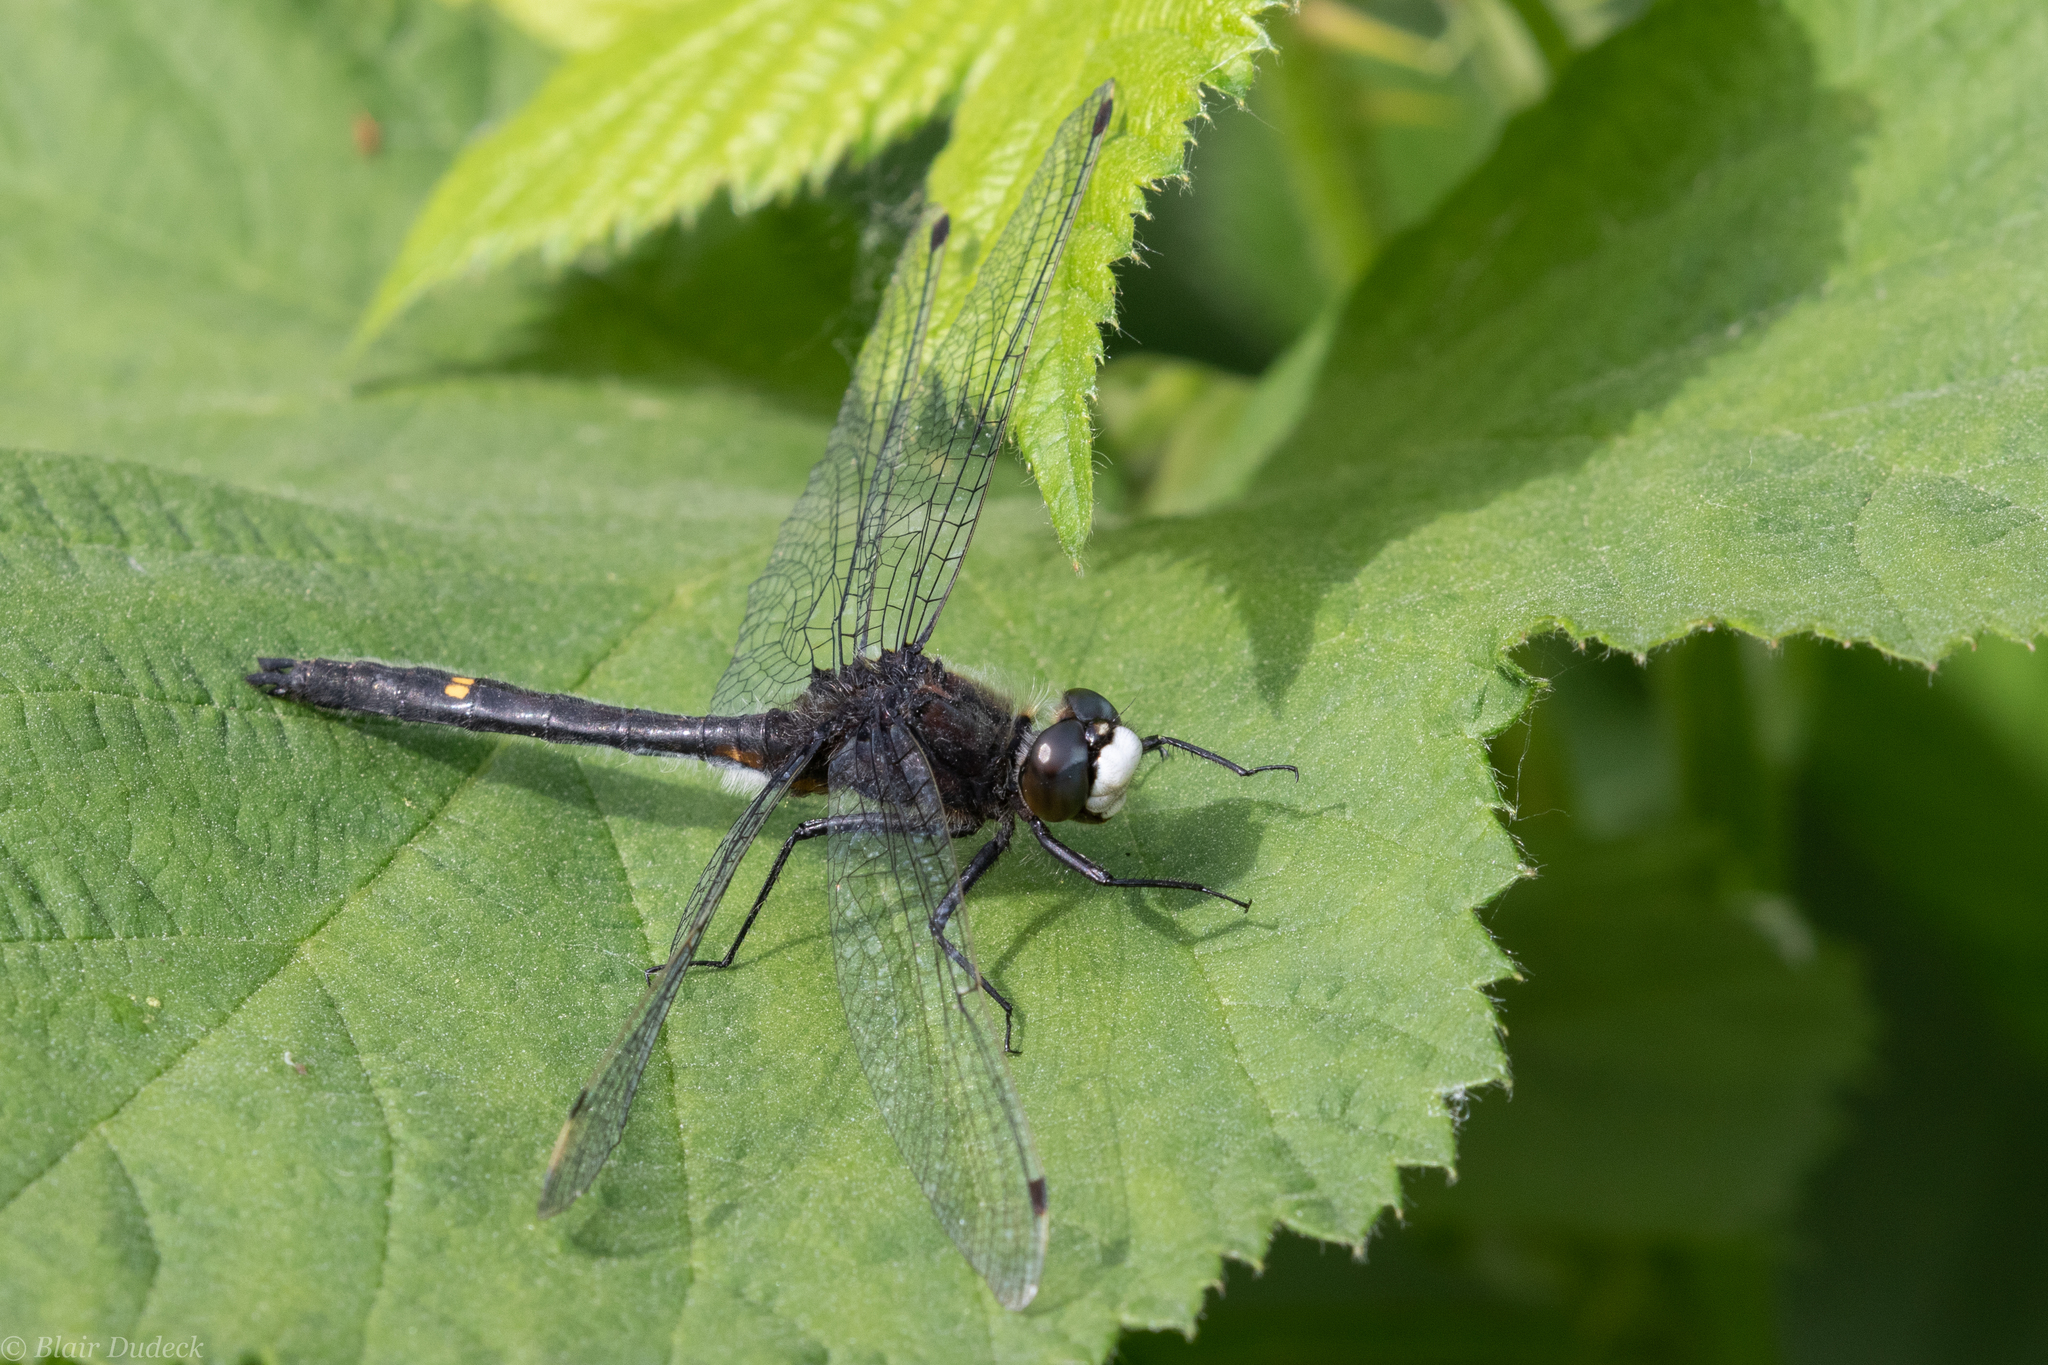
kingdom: Animalia
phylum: Arthropoda
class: Insecta
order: Odonata
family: Libellulidae
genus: Leucorrhinia
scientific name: Leucorrhinia intacta
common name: Dot-tailed whiteface
